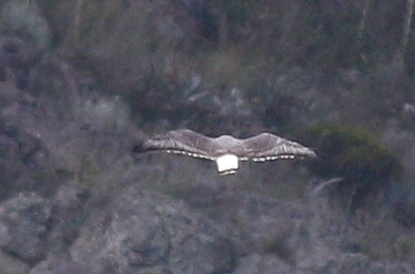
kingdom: Animalia
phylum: Chordata
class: Aves
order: Accipitriformes
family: Accipitridae
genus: Buteo
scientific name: Buteo polyosoma
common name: Variable hawk
